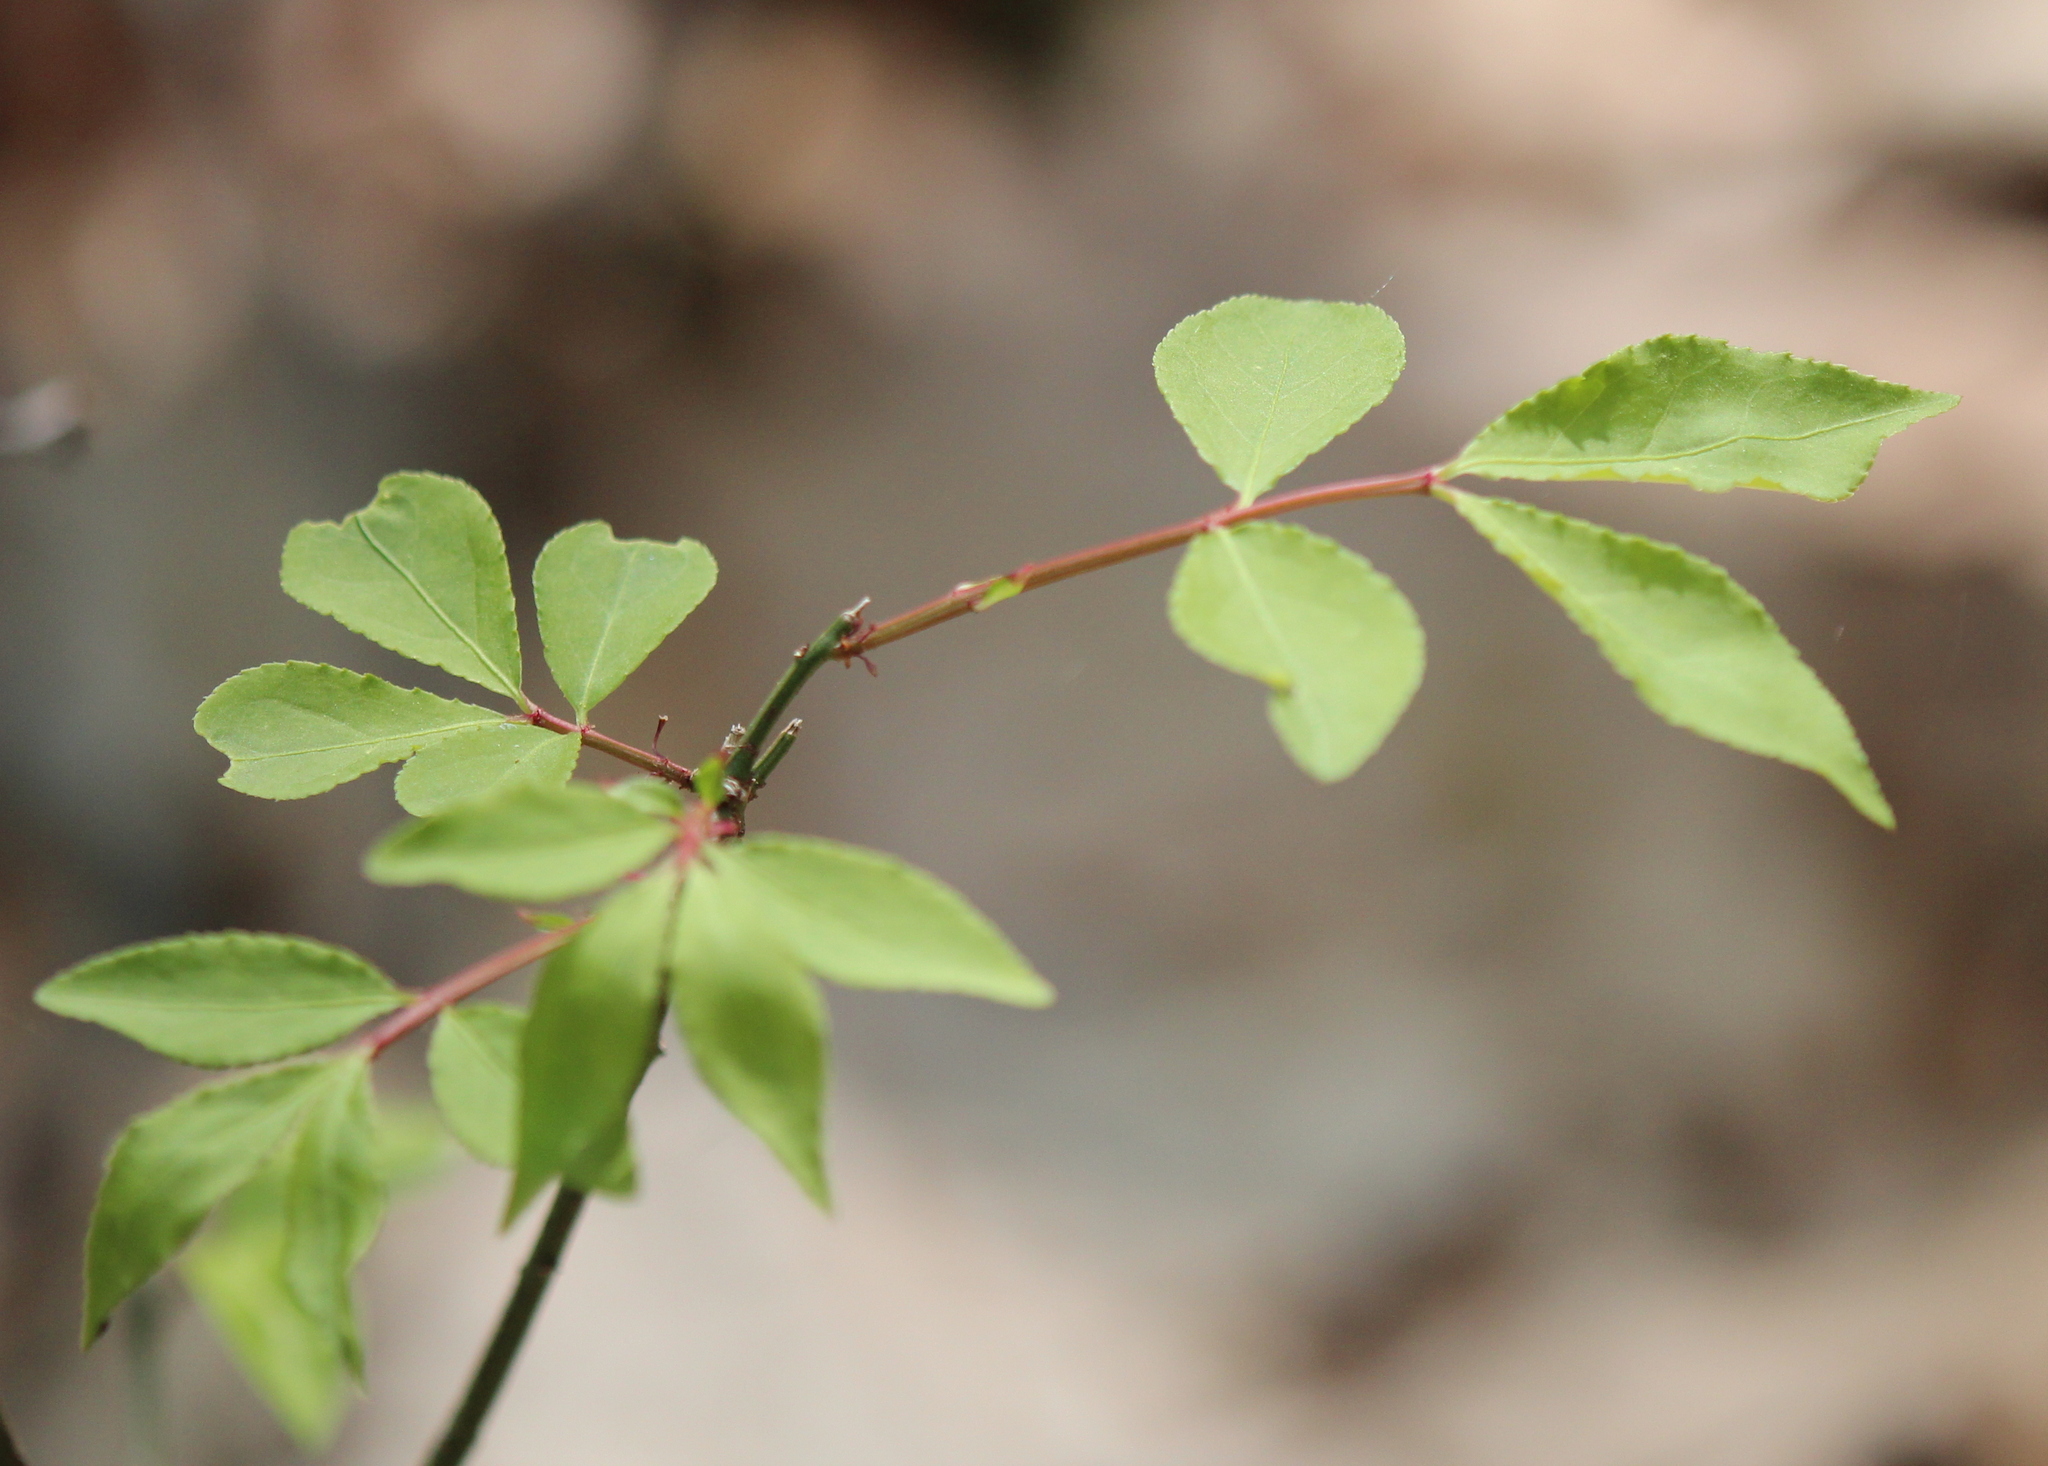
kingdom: Plantae
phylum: Tracheophyta
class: Magnoliopsida
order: Celastrales
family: Celastraceae
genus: Euonymus
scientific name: Euonymus alatus
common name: Winged euonymus
